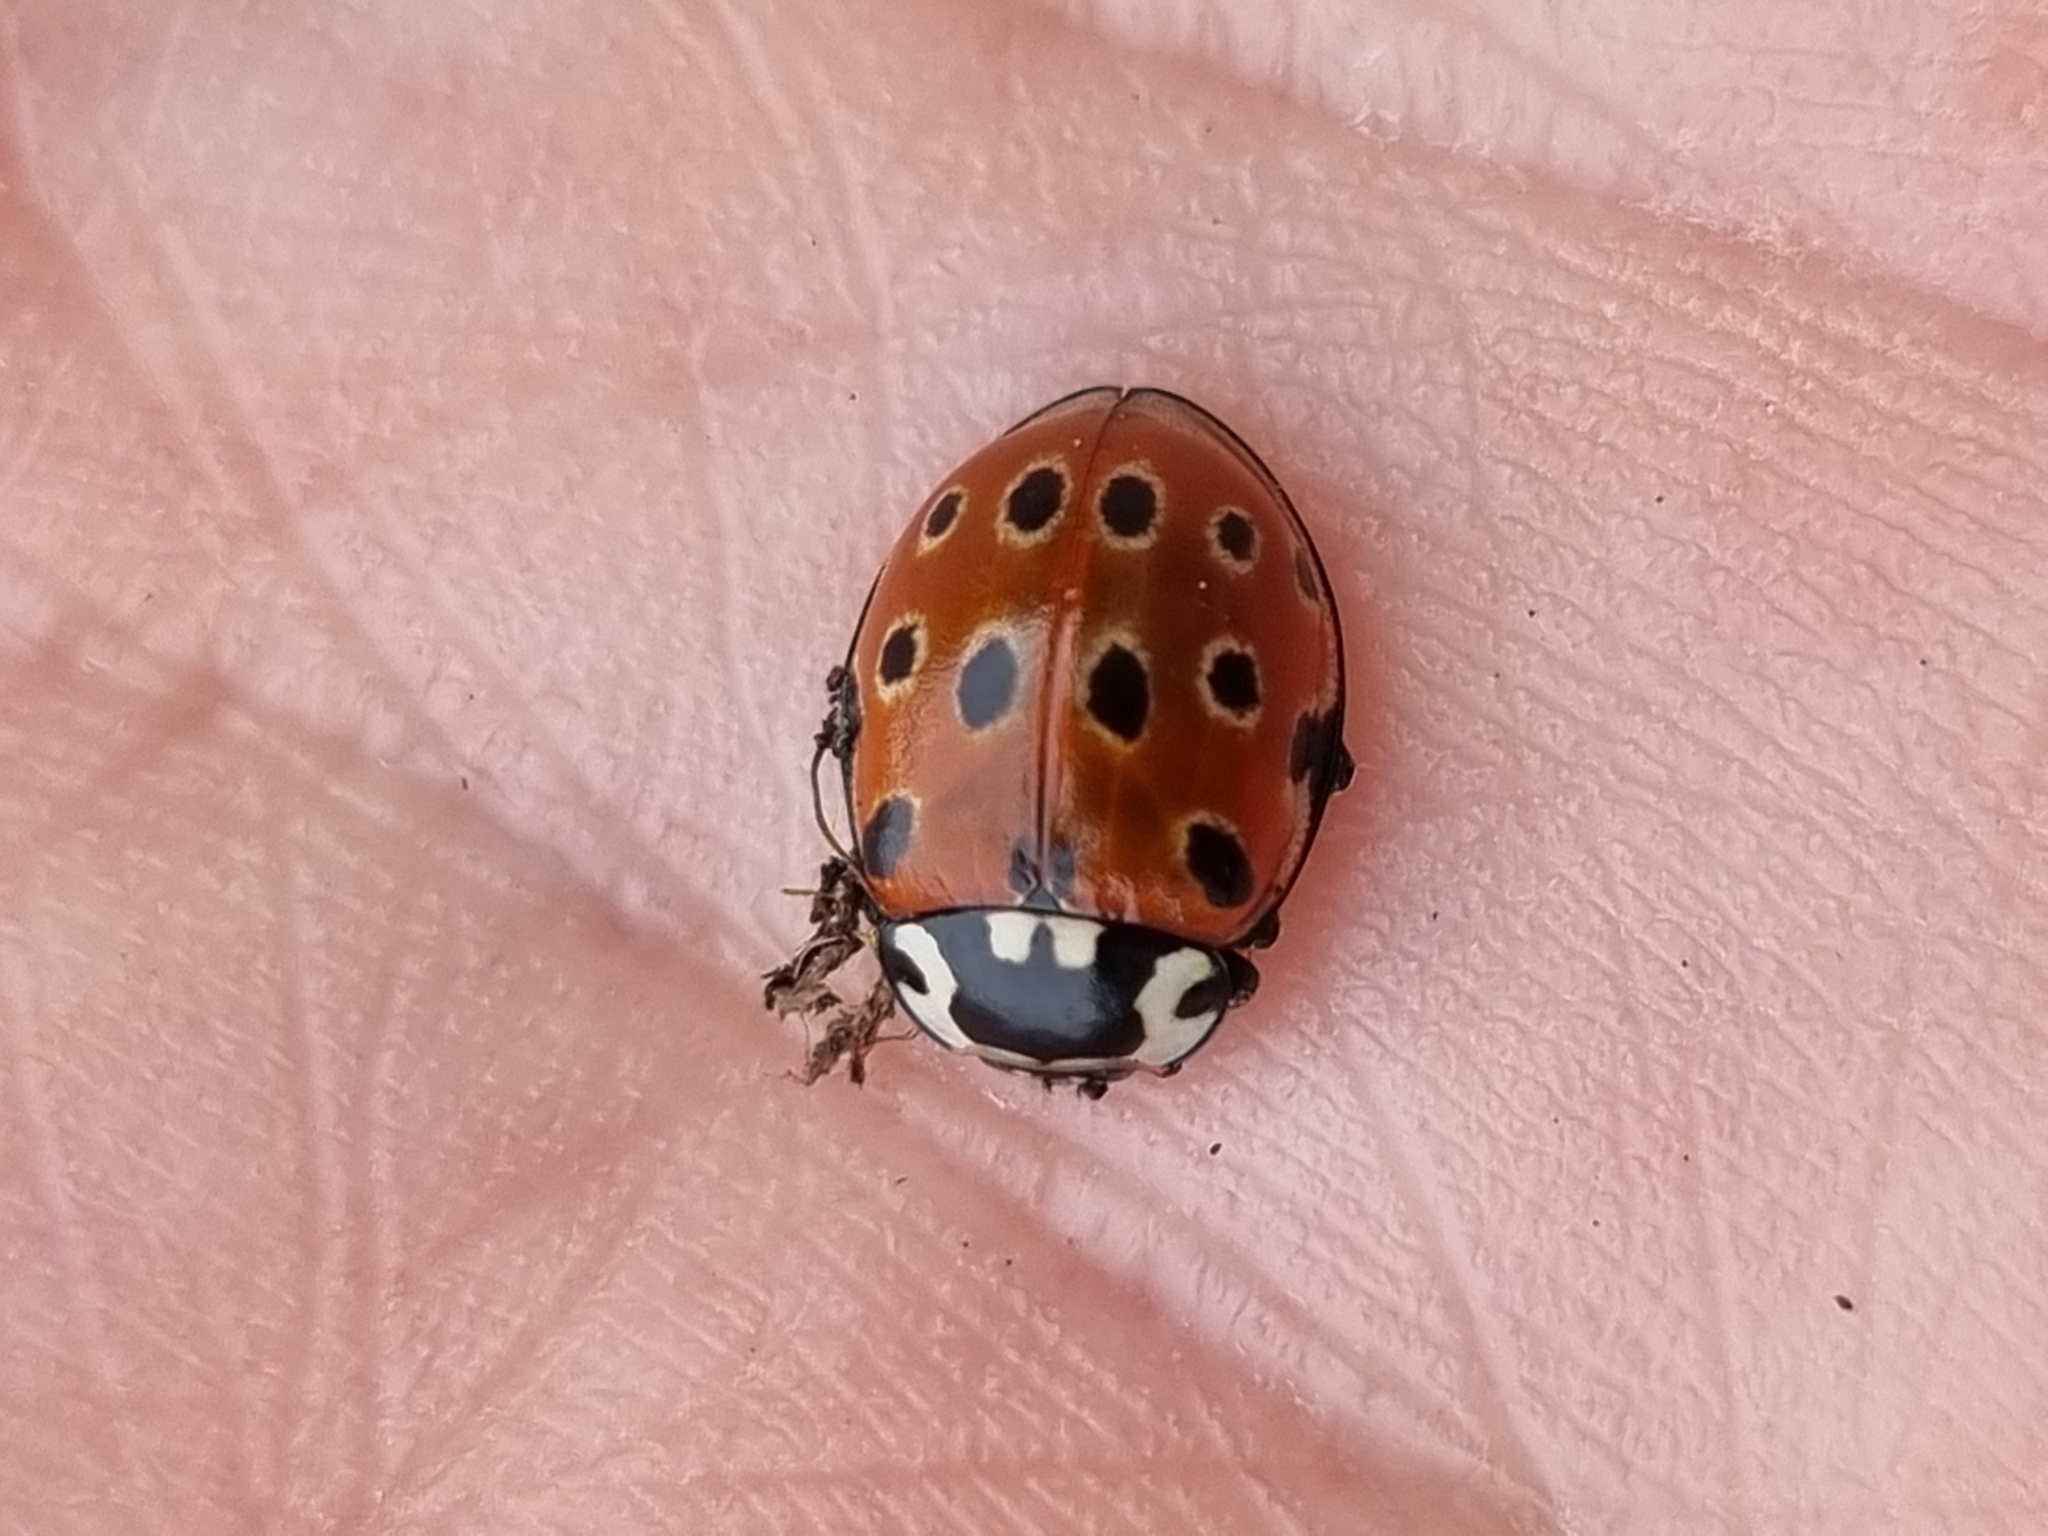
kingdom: Animalia
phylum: Arthropoda
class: Insecta
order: Coleoptera
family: Coccinellidae
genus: Anatis
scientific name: Anatis ocellata
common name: Eyed ladybird
